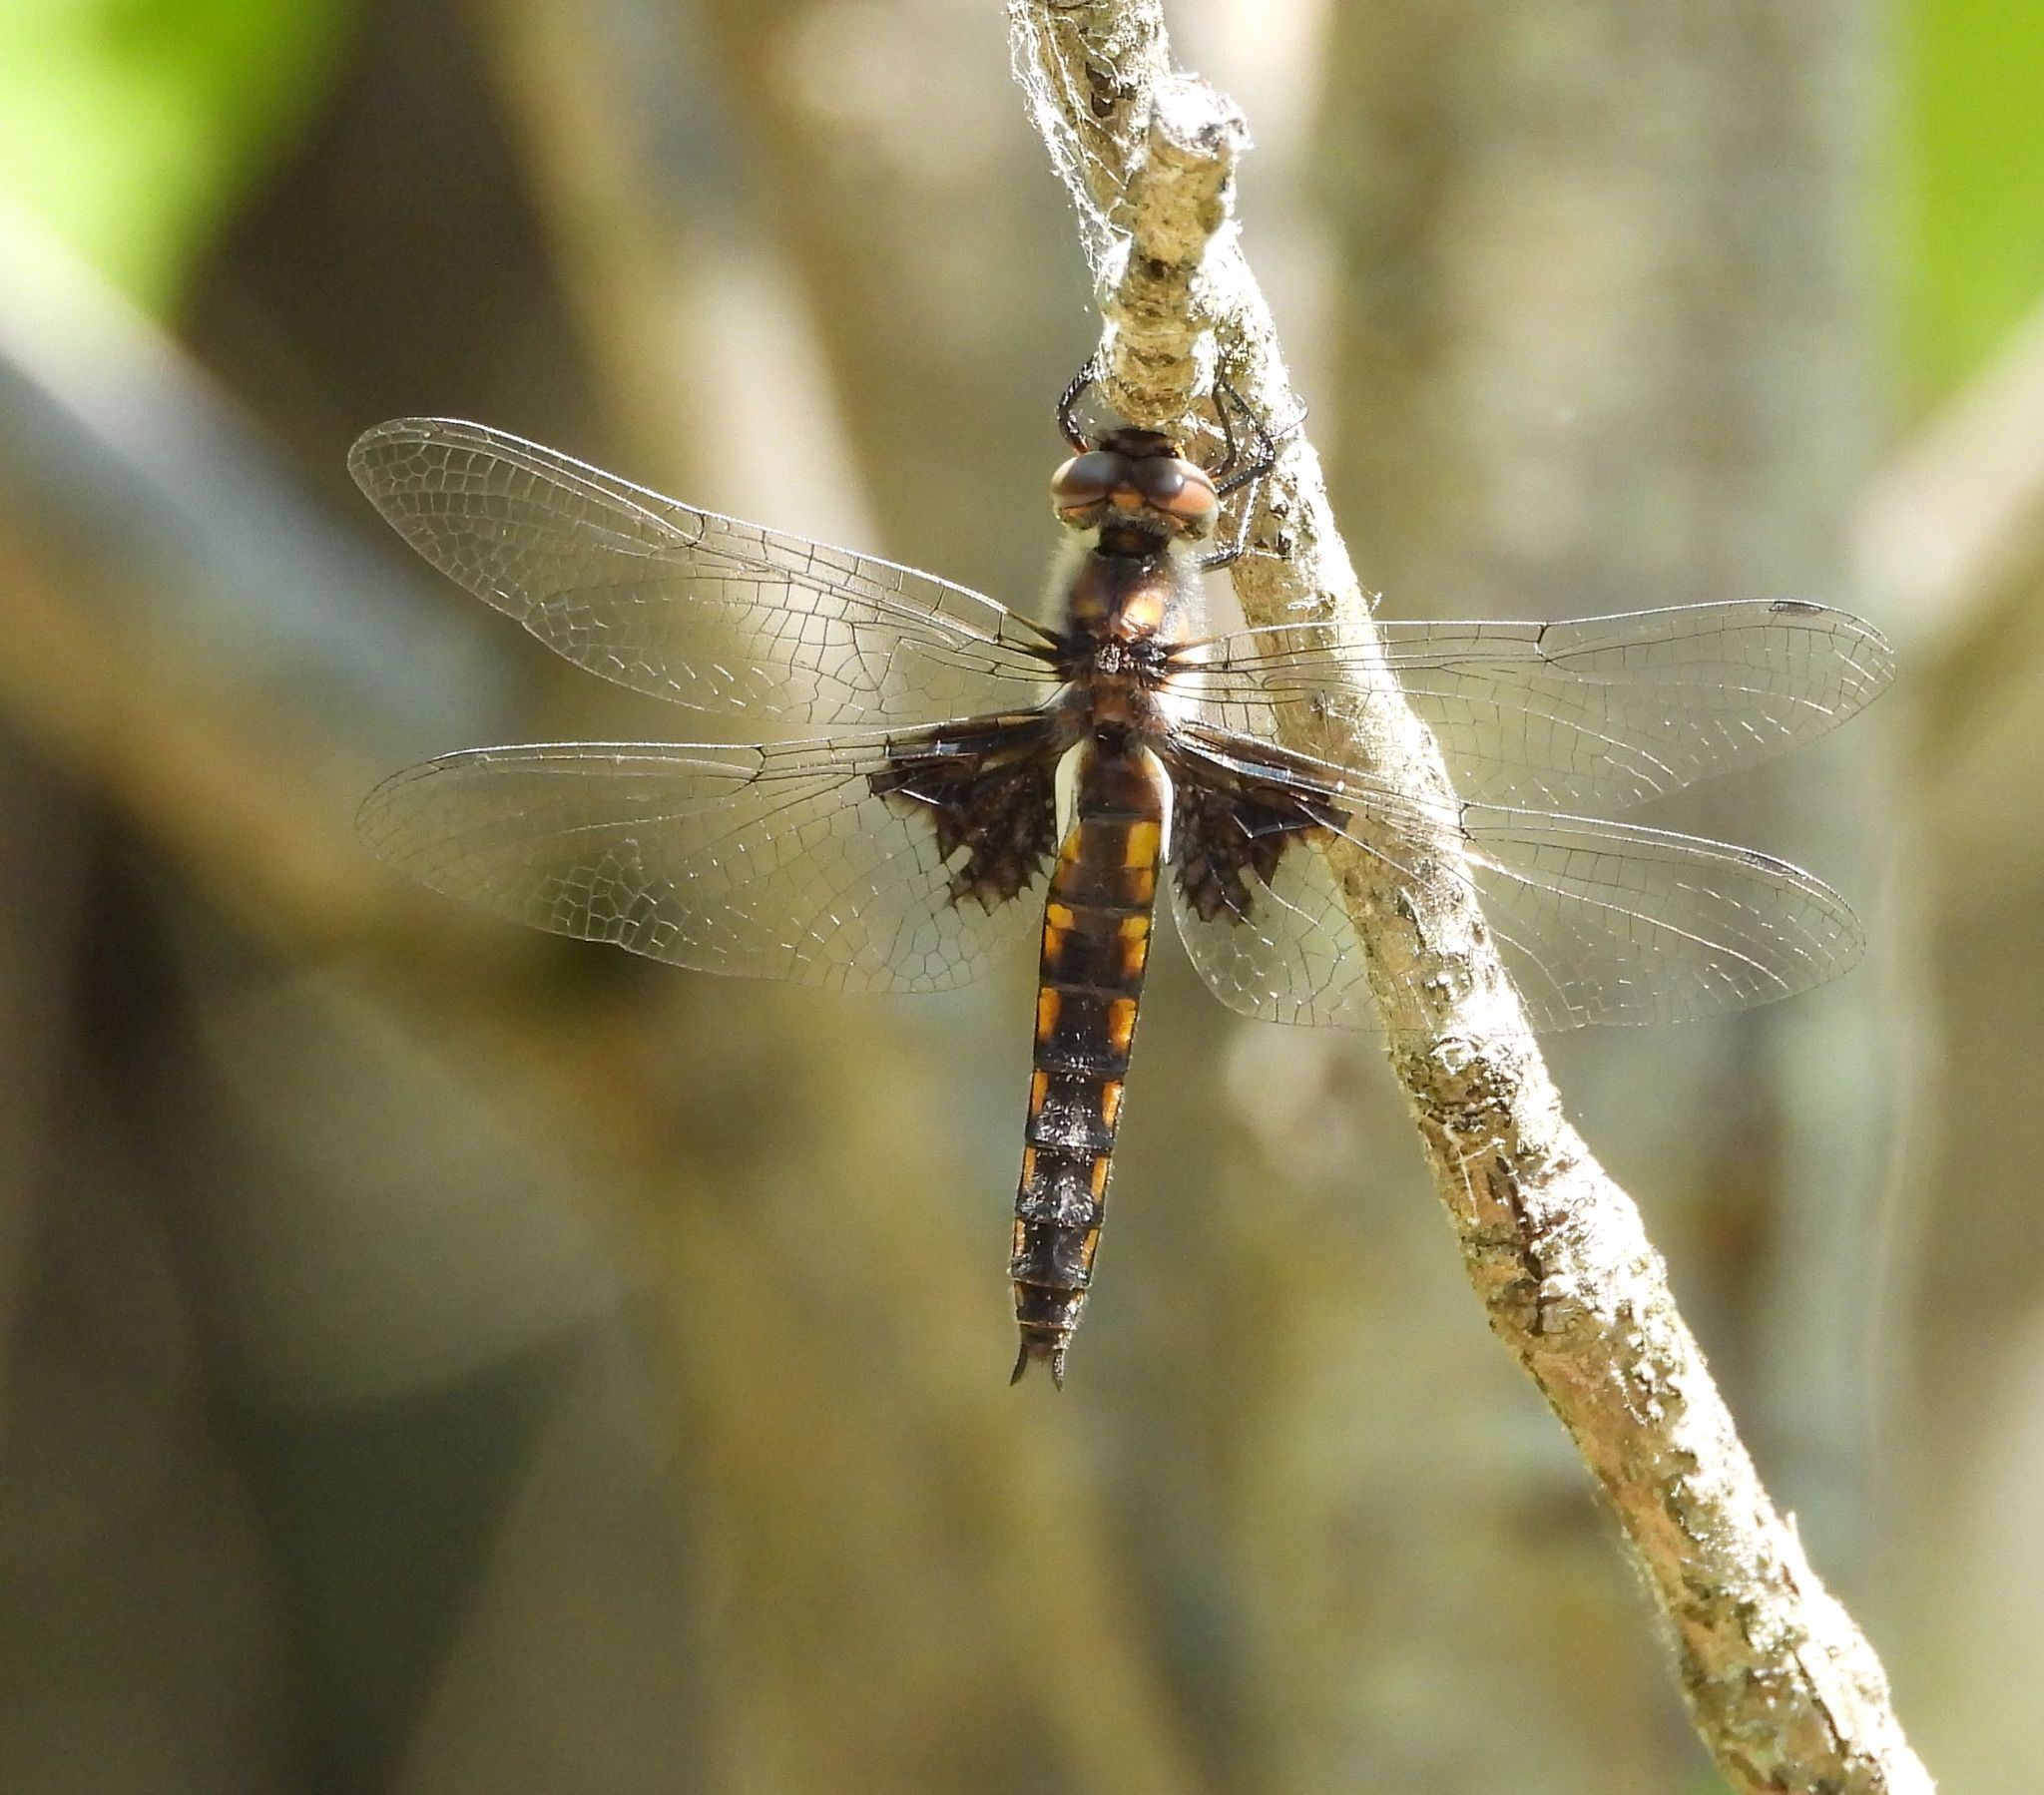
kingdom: Animalia
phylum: Arthropoda
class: Insecta
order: Odonata
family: Corduliidae
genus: Epitheca
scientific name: Epitheca cynosura
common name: Common baskettail
